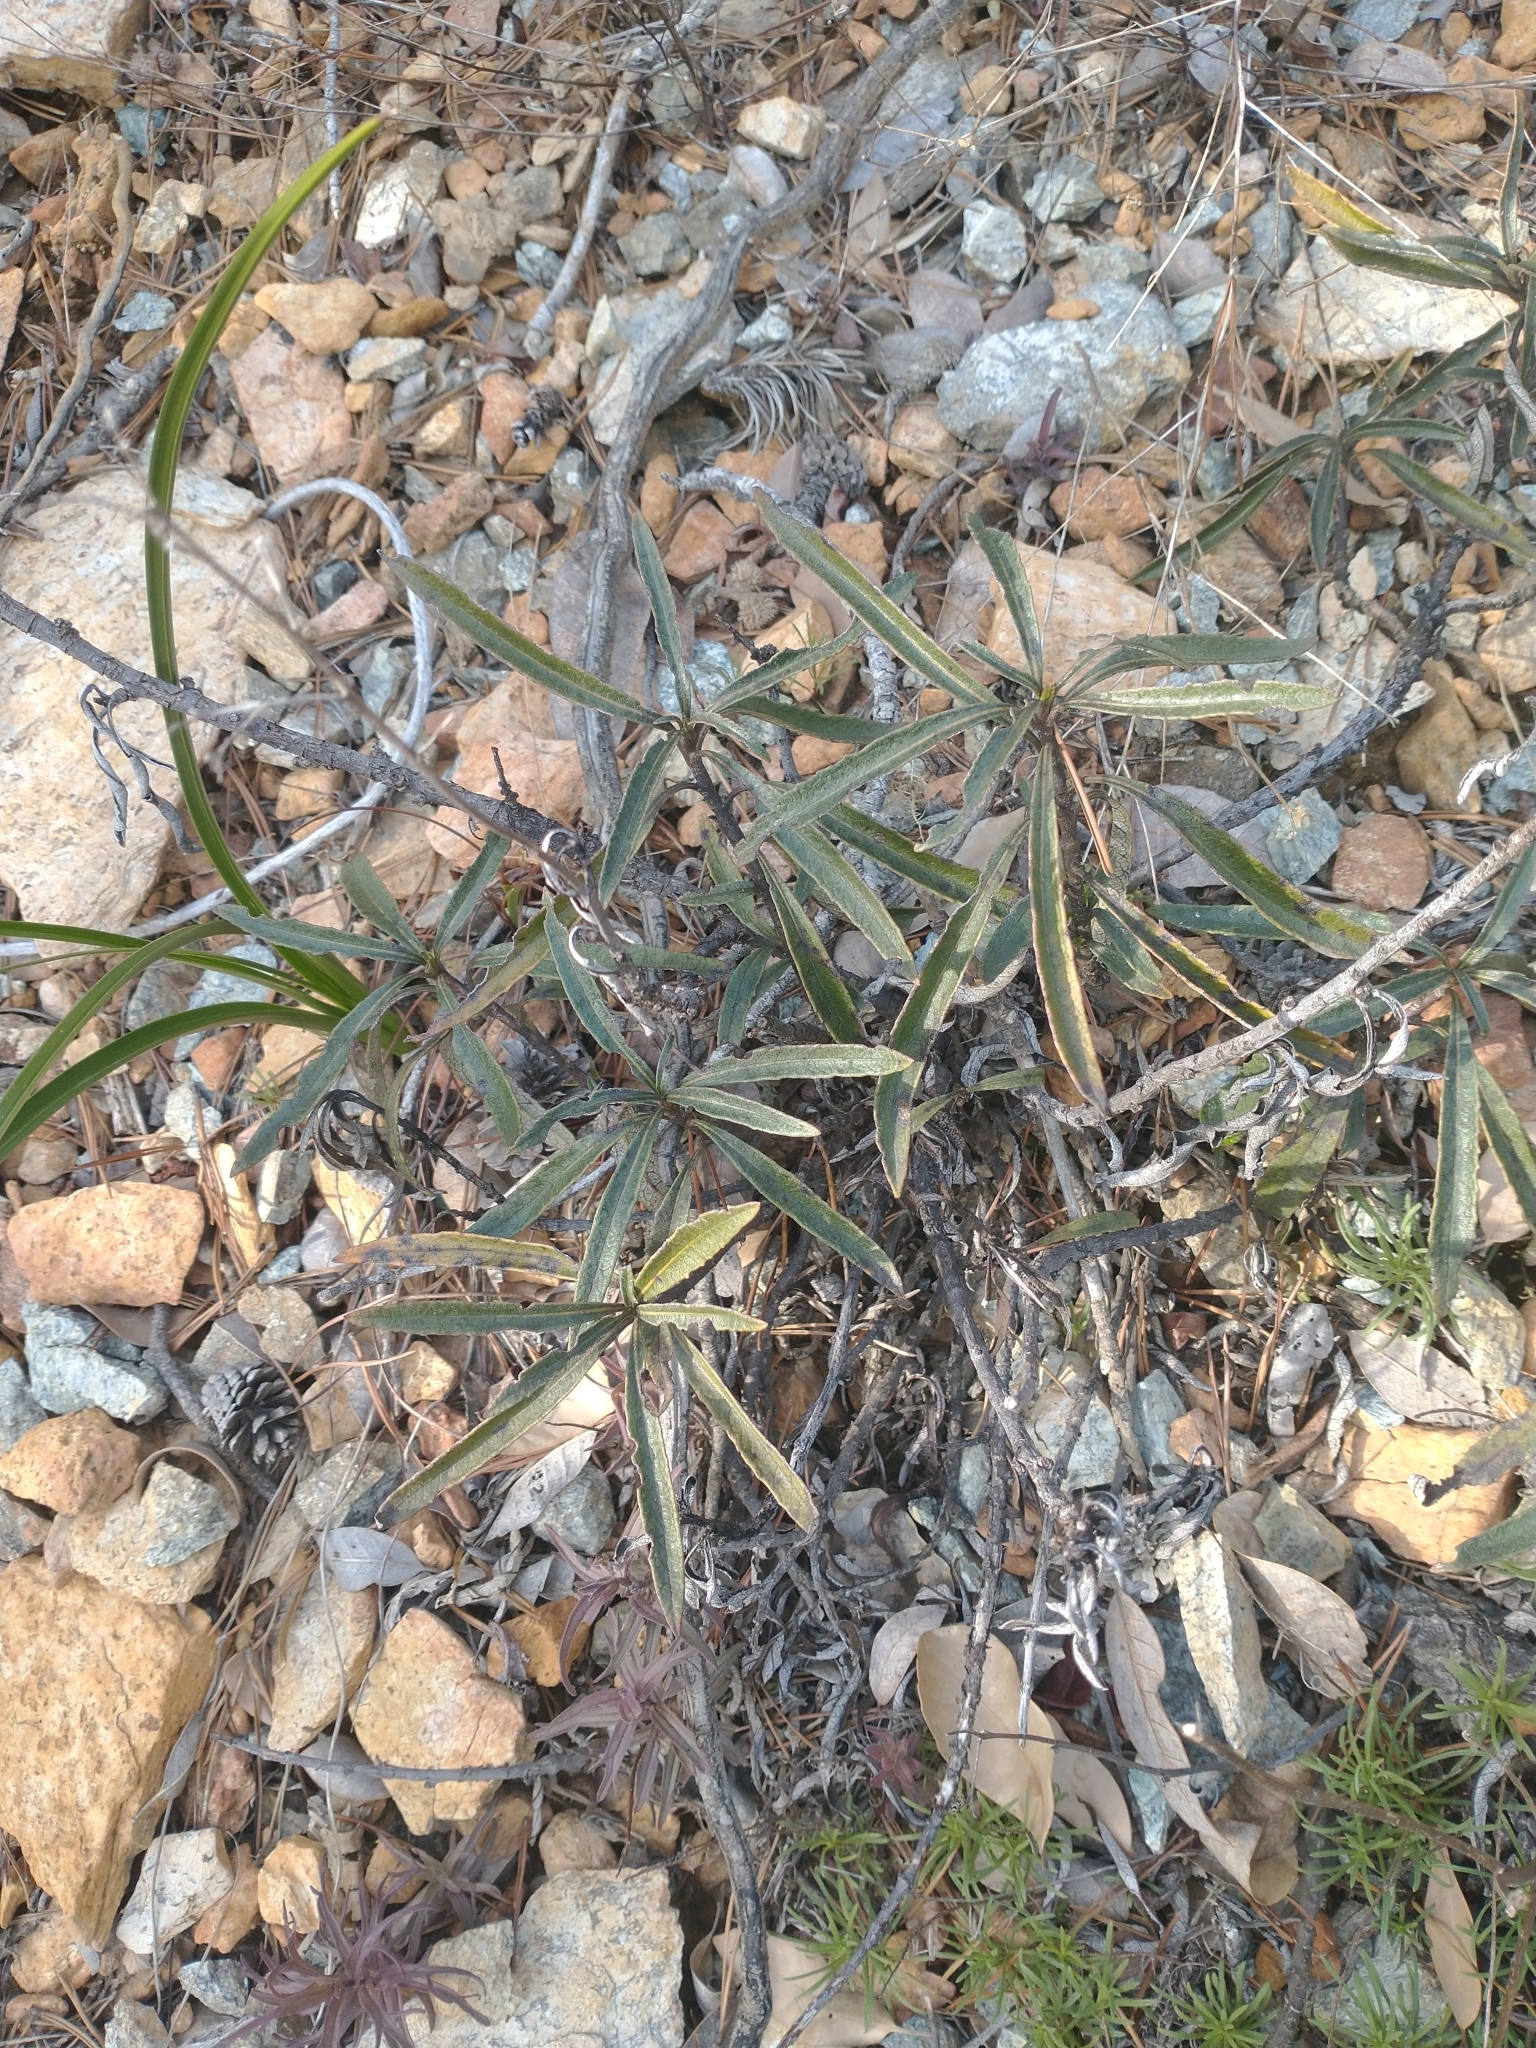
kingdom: Plantae
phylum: Tracheophyta
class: Magnoliopsida
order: Boraginales
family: Namaceae
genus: Eriodictyon
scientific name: Eriodictyon californicum
